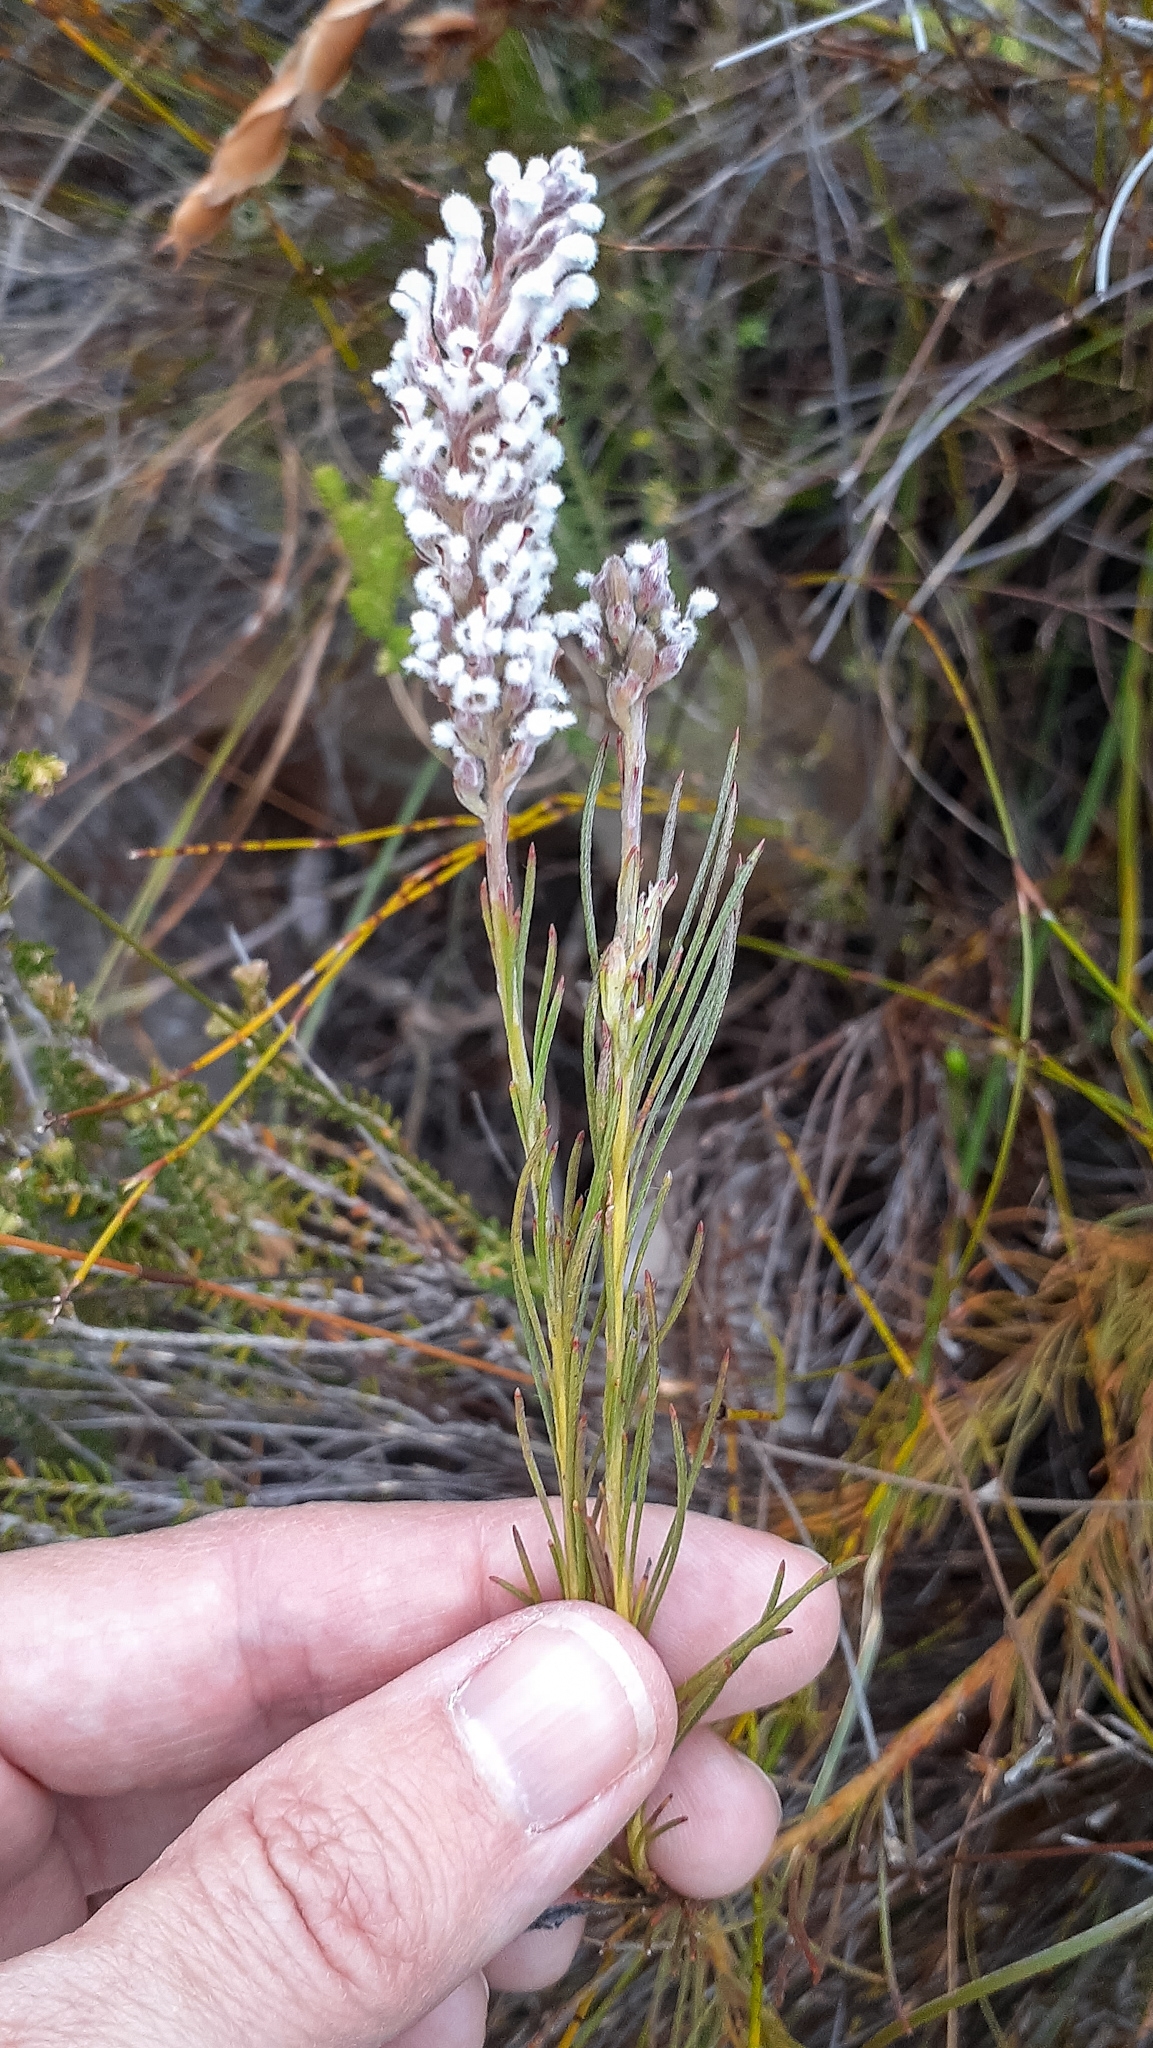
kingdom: Plantae
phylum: Tracheophyta
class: Magnoliopsida
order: Proteales
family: Proteaceae
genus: Spatalla
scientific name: Spatalla racemosa
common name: Lax-stalked spoon
